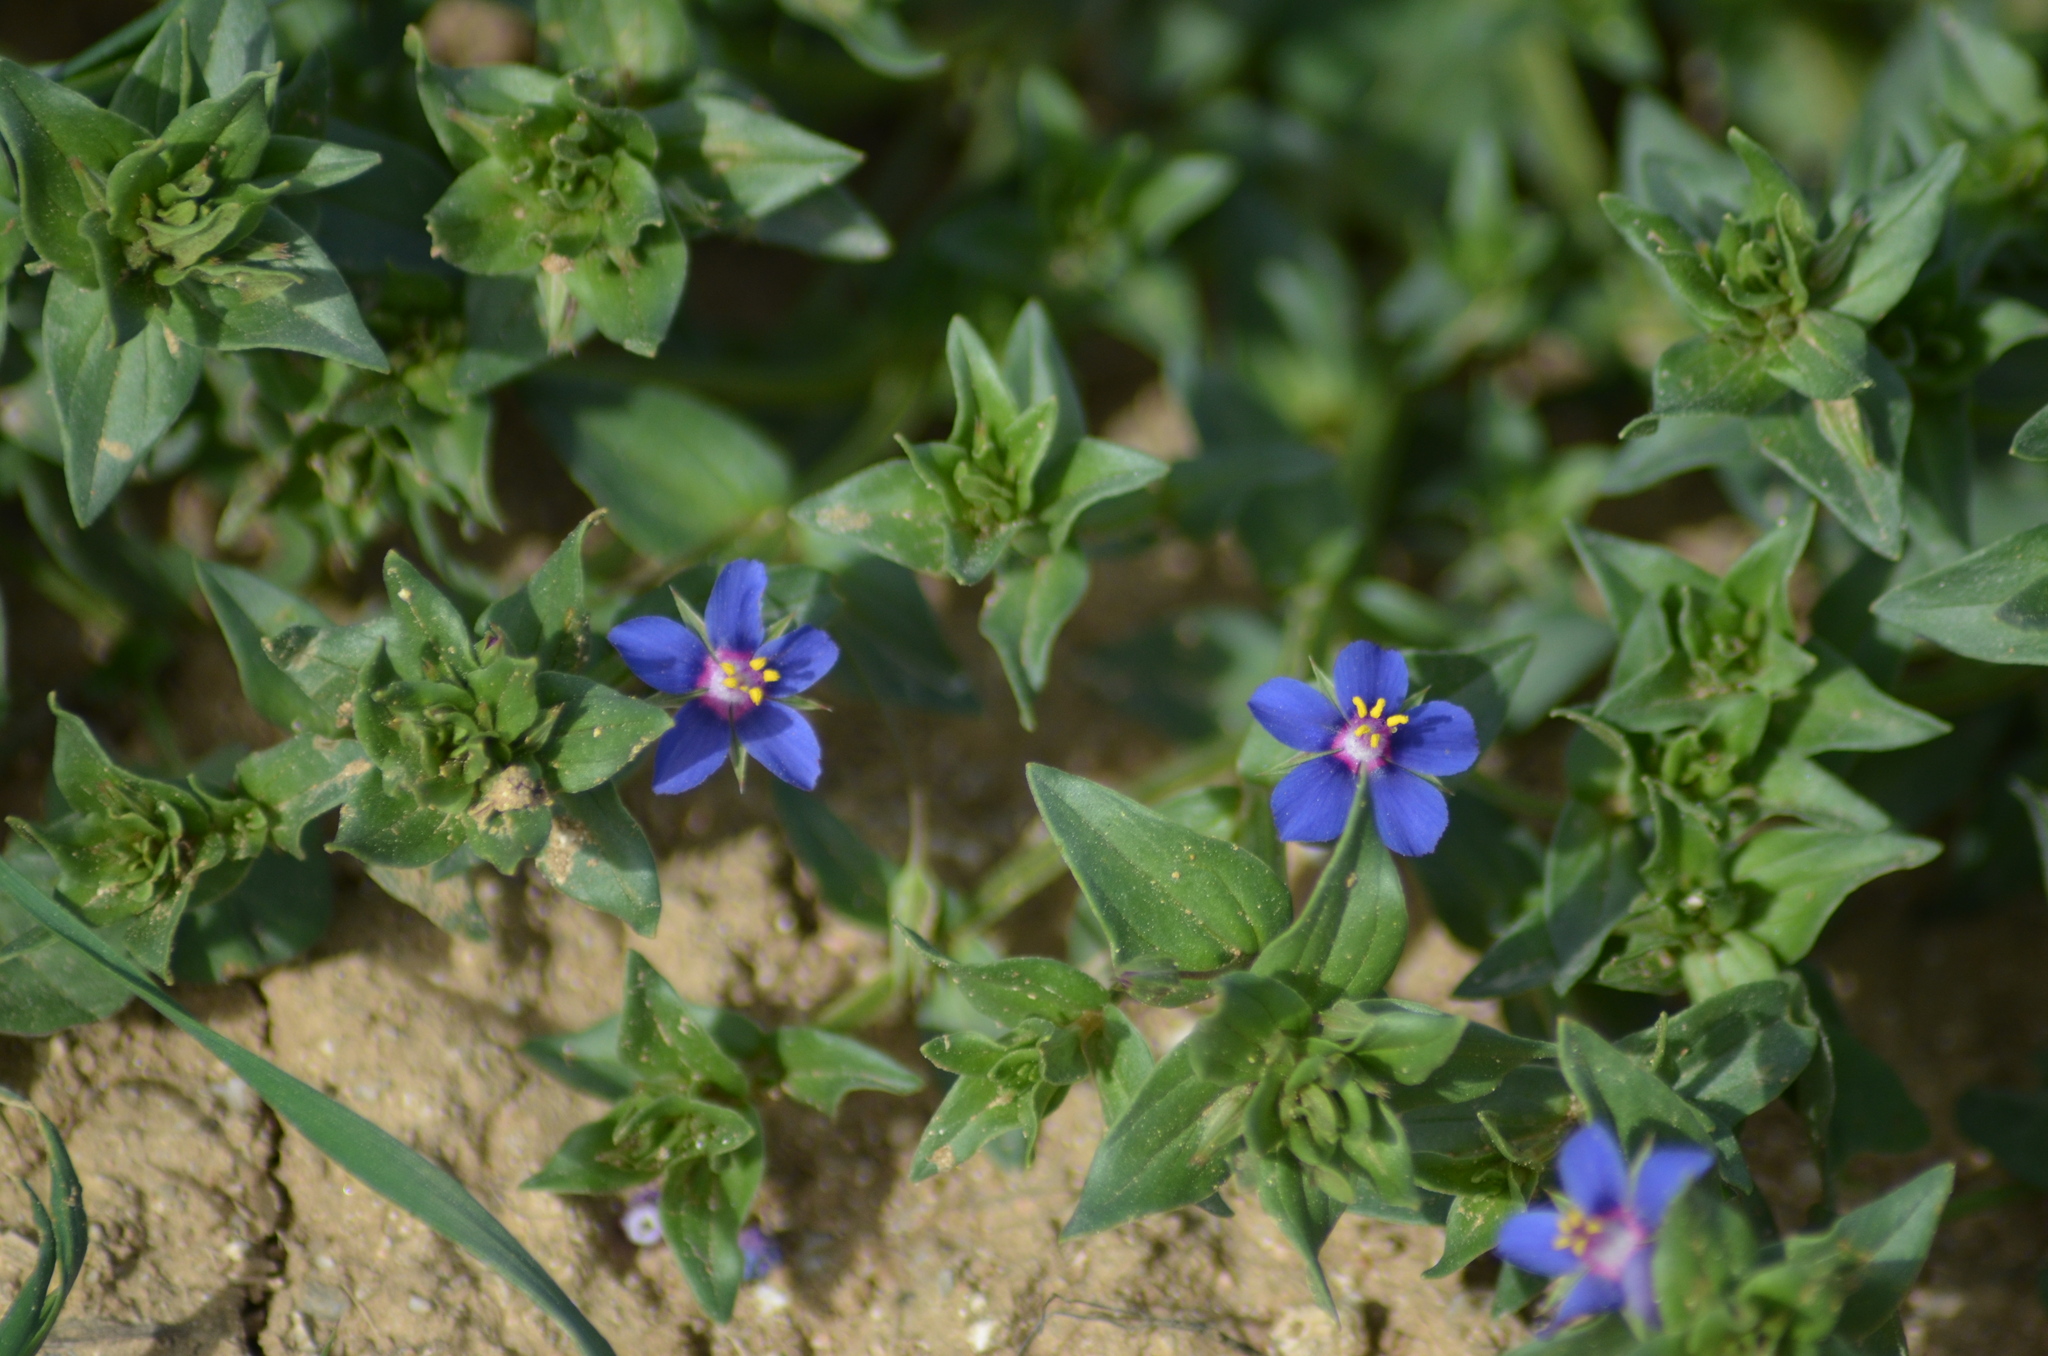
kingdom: Plantae
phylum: Tracheophyta
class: Magnoliopsida
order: Ericales
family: Primulaceae
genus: Lysimachia
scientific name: Lysimachia foemina
